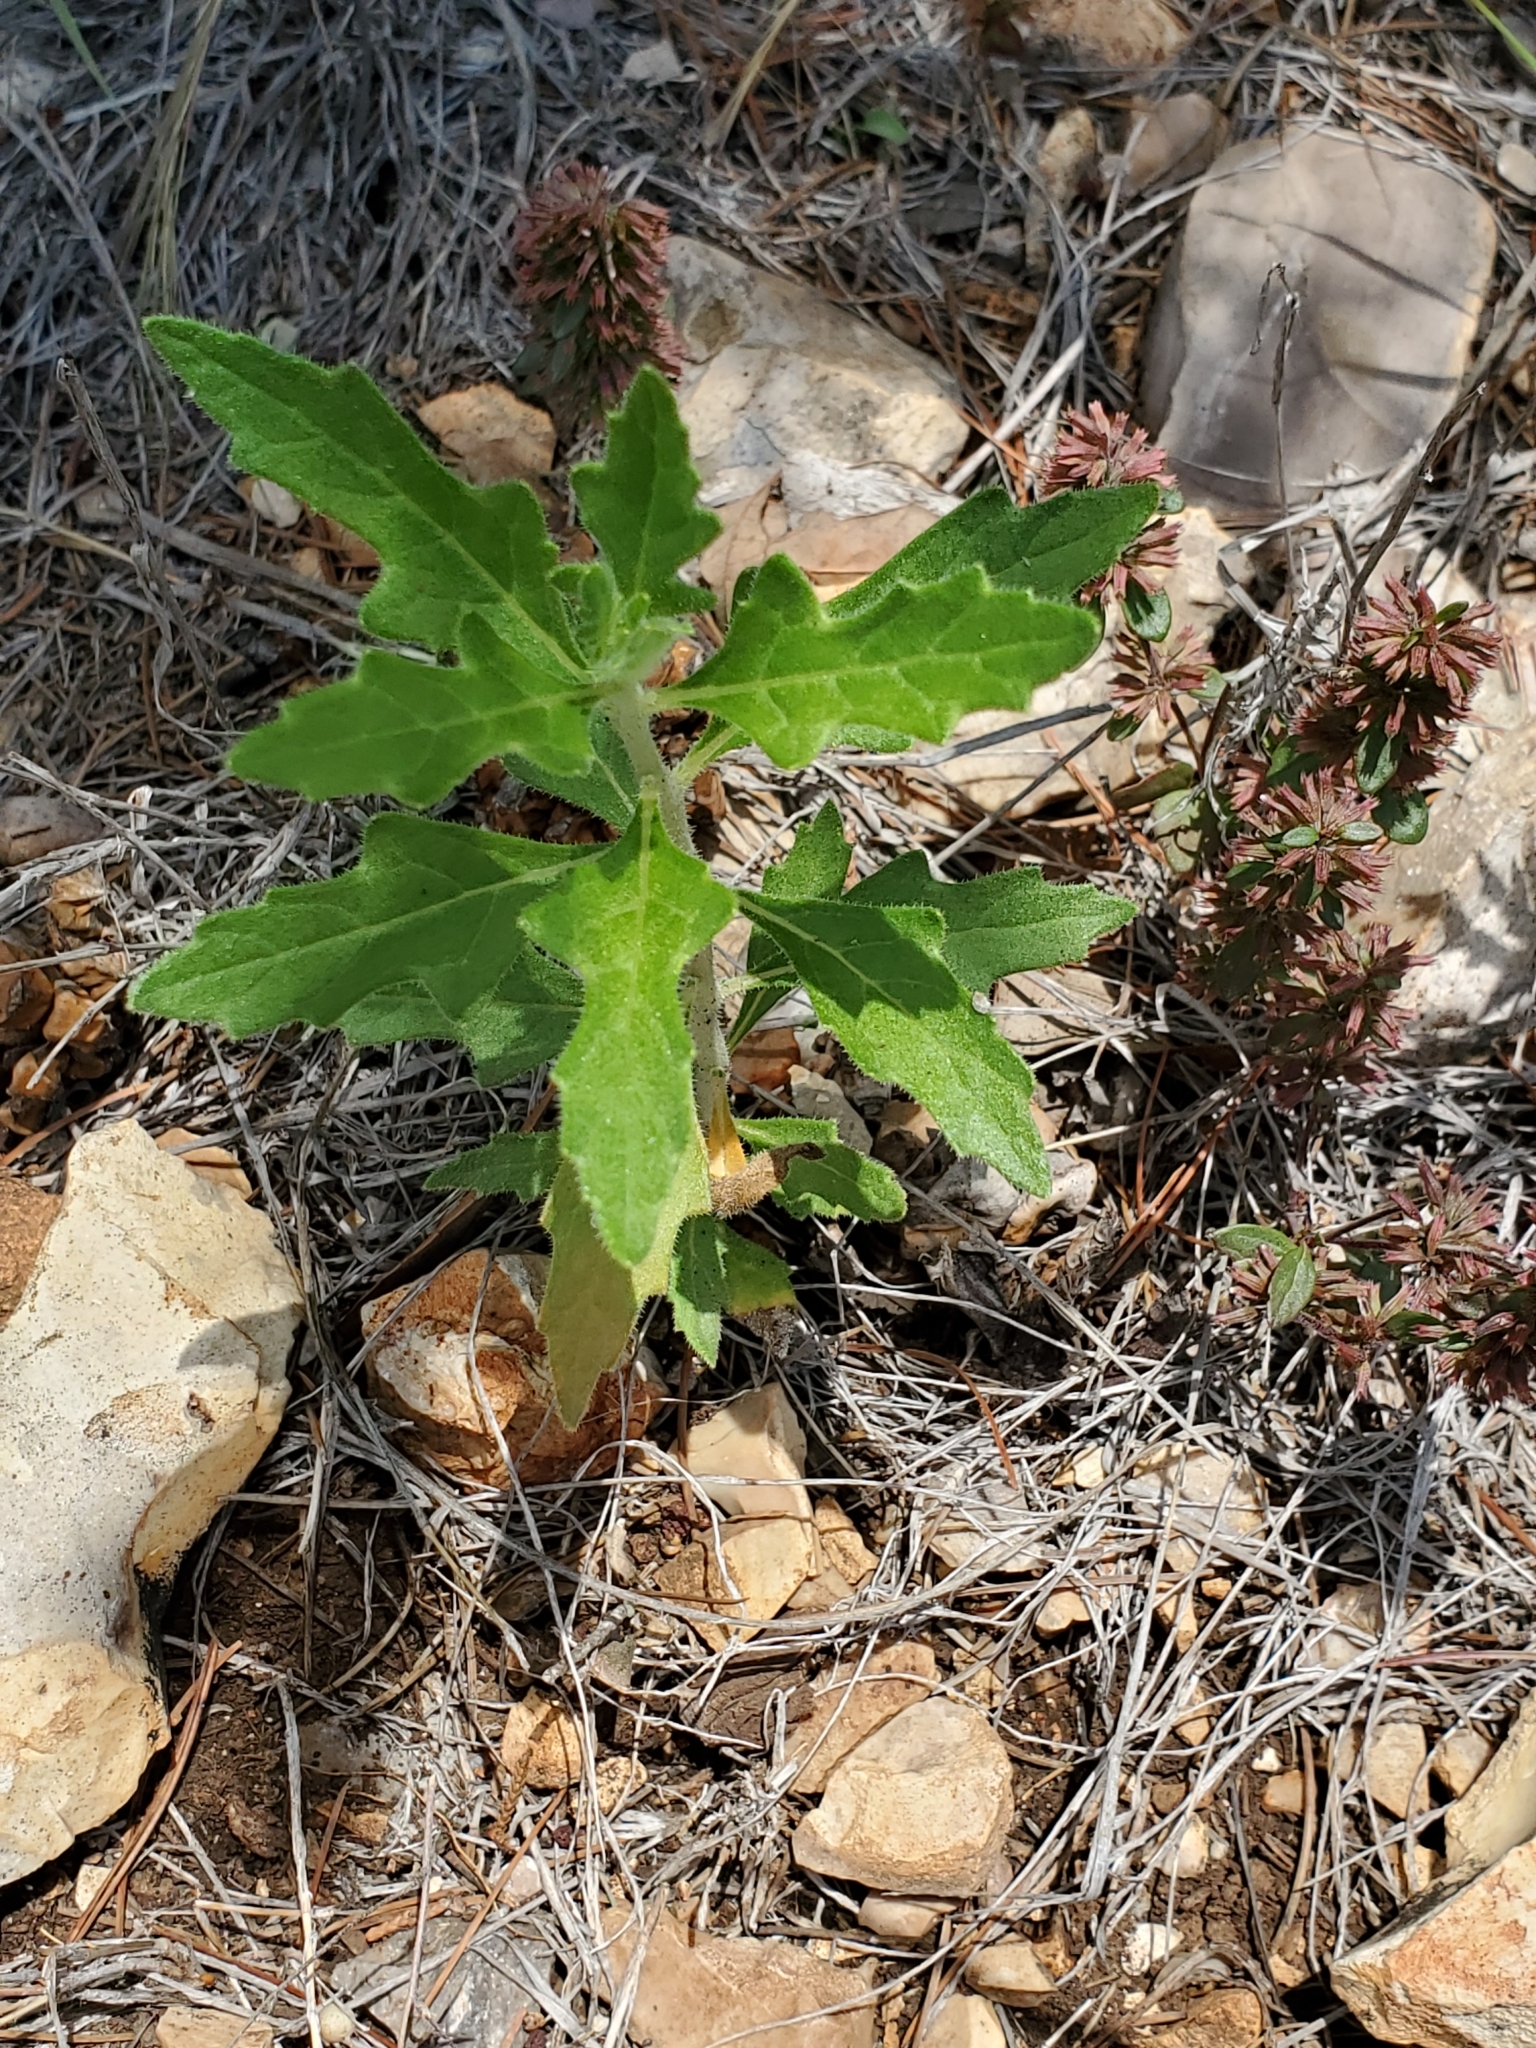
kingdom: Plantae
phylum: Tracheophyta
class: Magnoliopsida
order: Cornales
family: Loasaceae
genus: Mentzelia
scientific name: Mentzelia oligosperma
